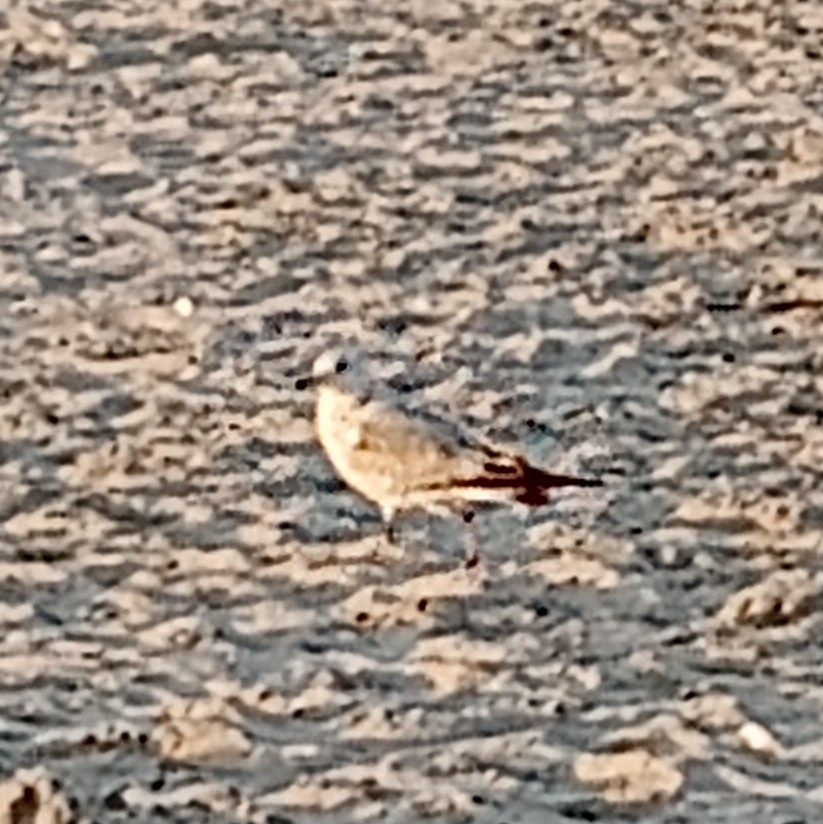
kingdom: Animalia
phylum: Chordata
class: Aves
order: Charadriiformes
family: Laridae
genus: Larus
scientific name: Larus delawarensis
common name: Ring-billed gull
